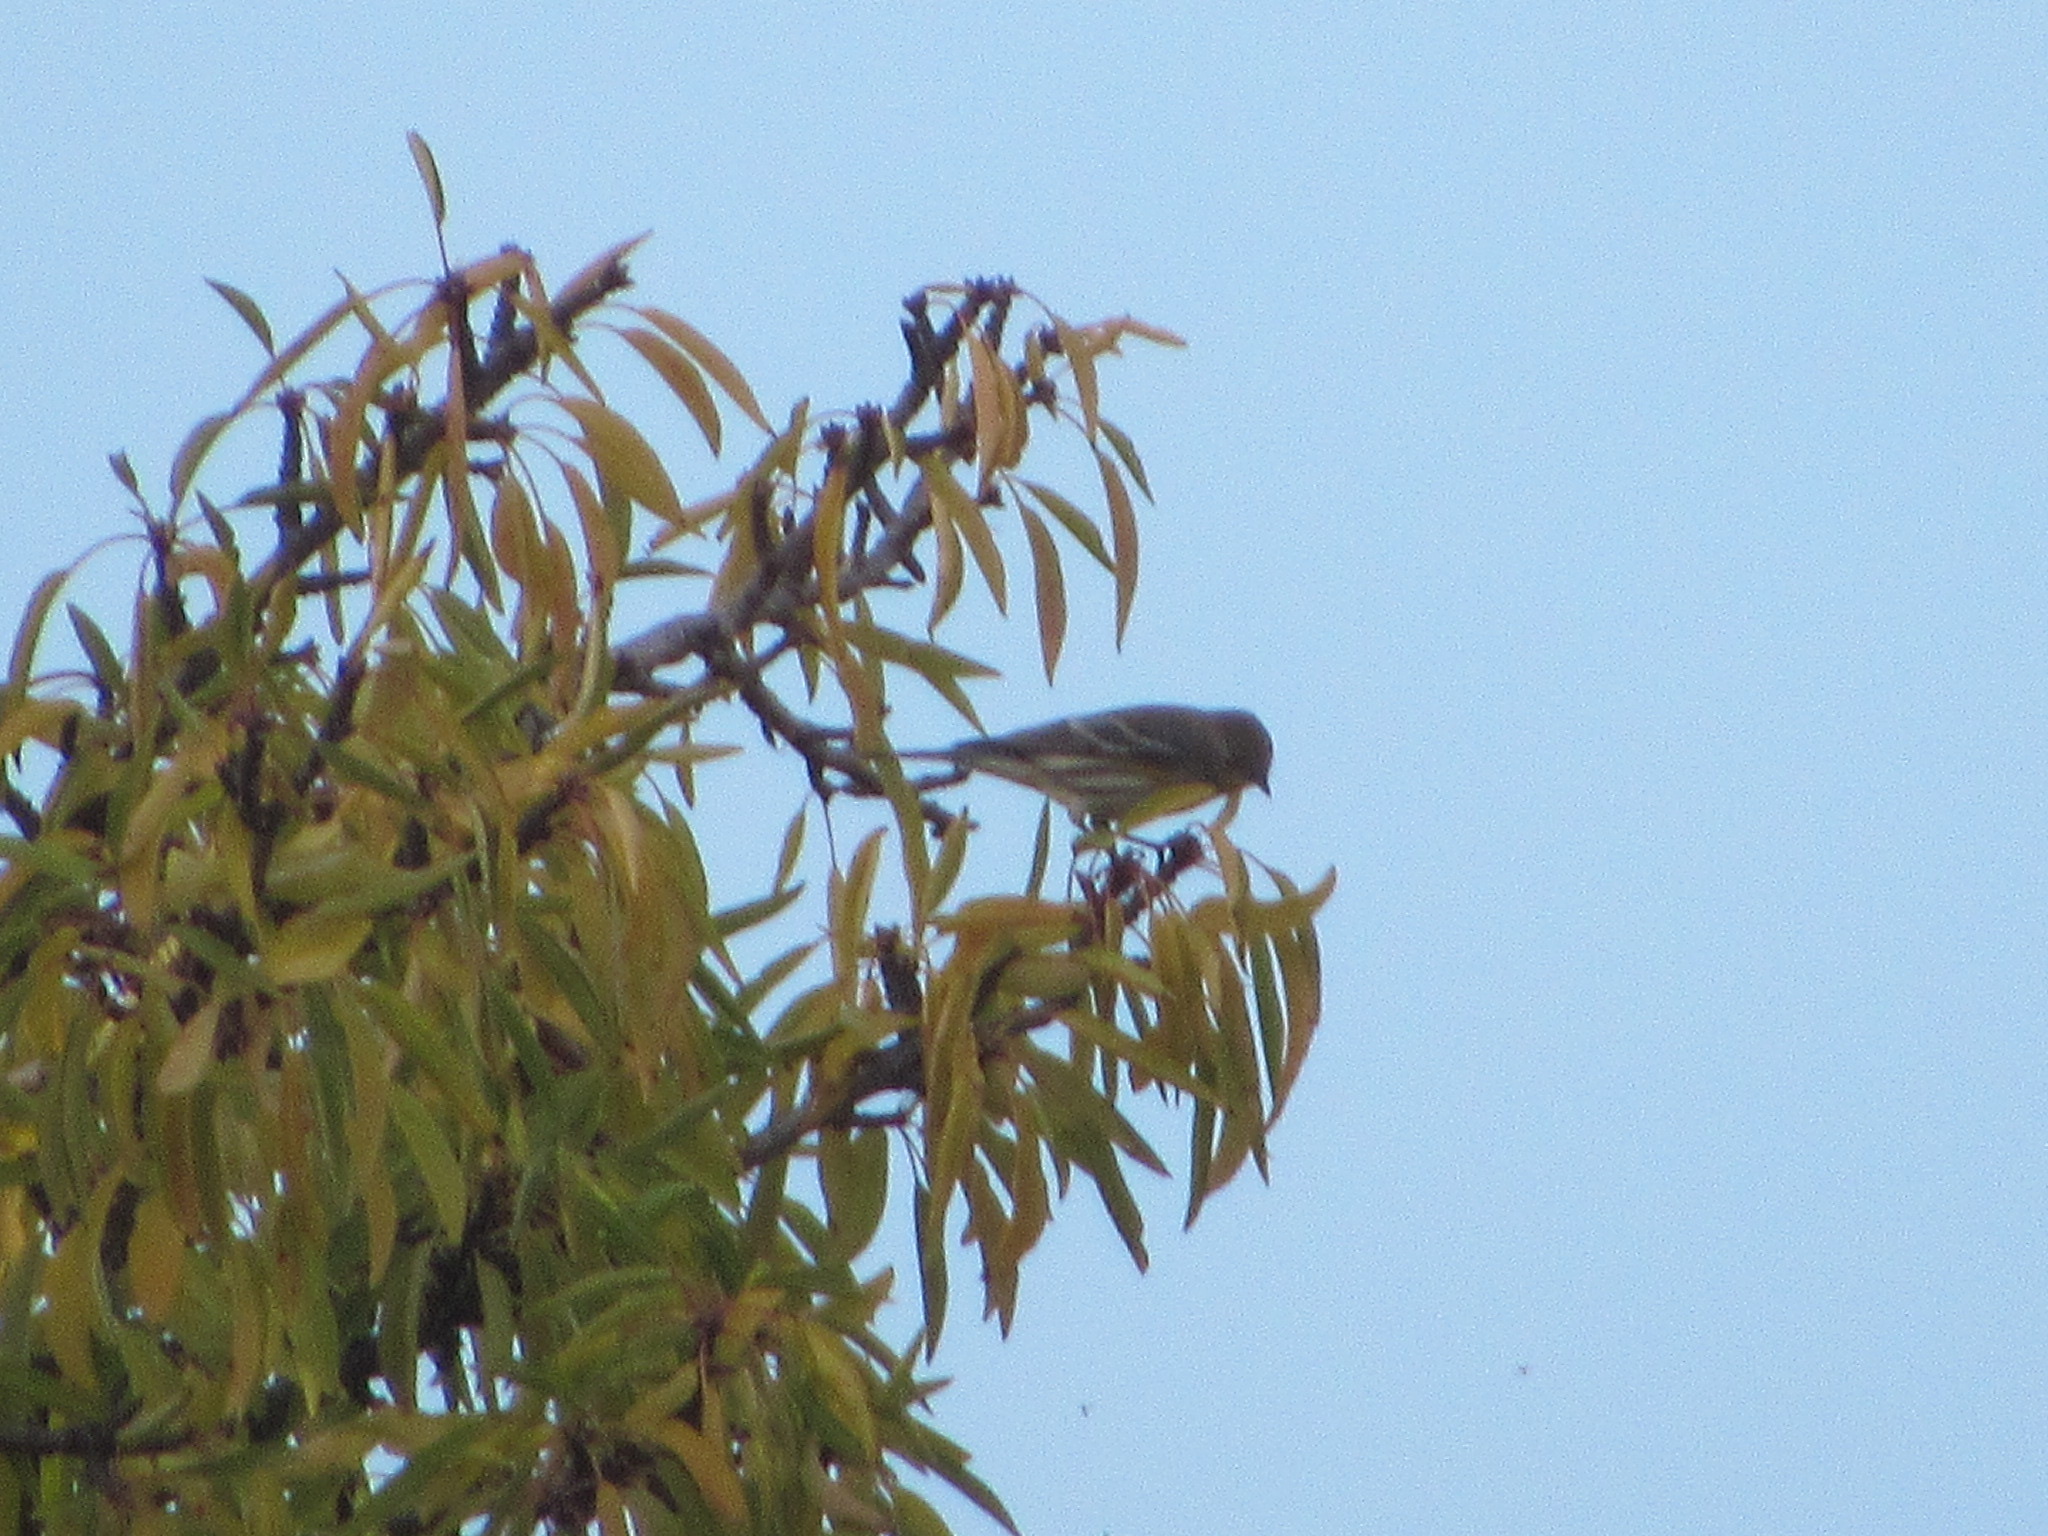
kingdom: Animalia
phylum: Chordata
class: Aves
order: Passeriformes
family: Parulidae
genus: Setophaga
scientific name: Setophaga coronata
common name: Myrtle warbler
